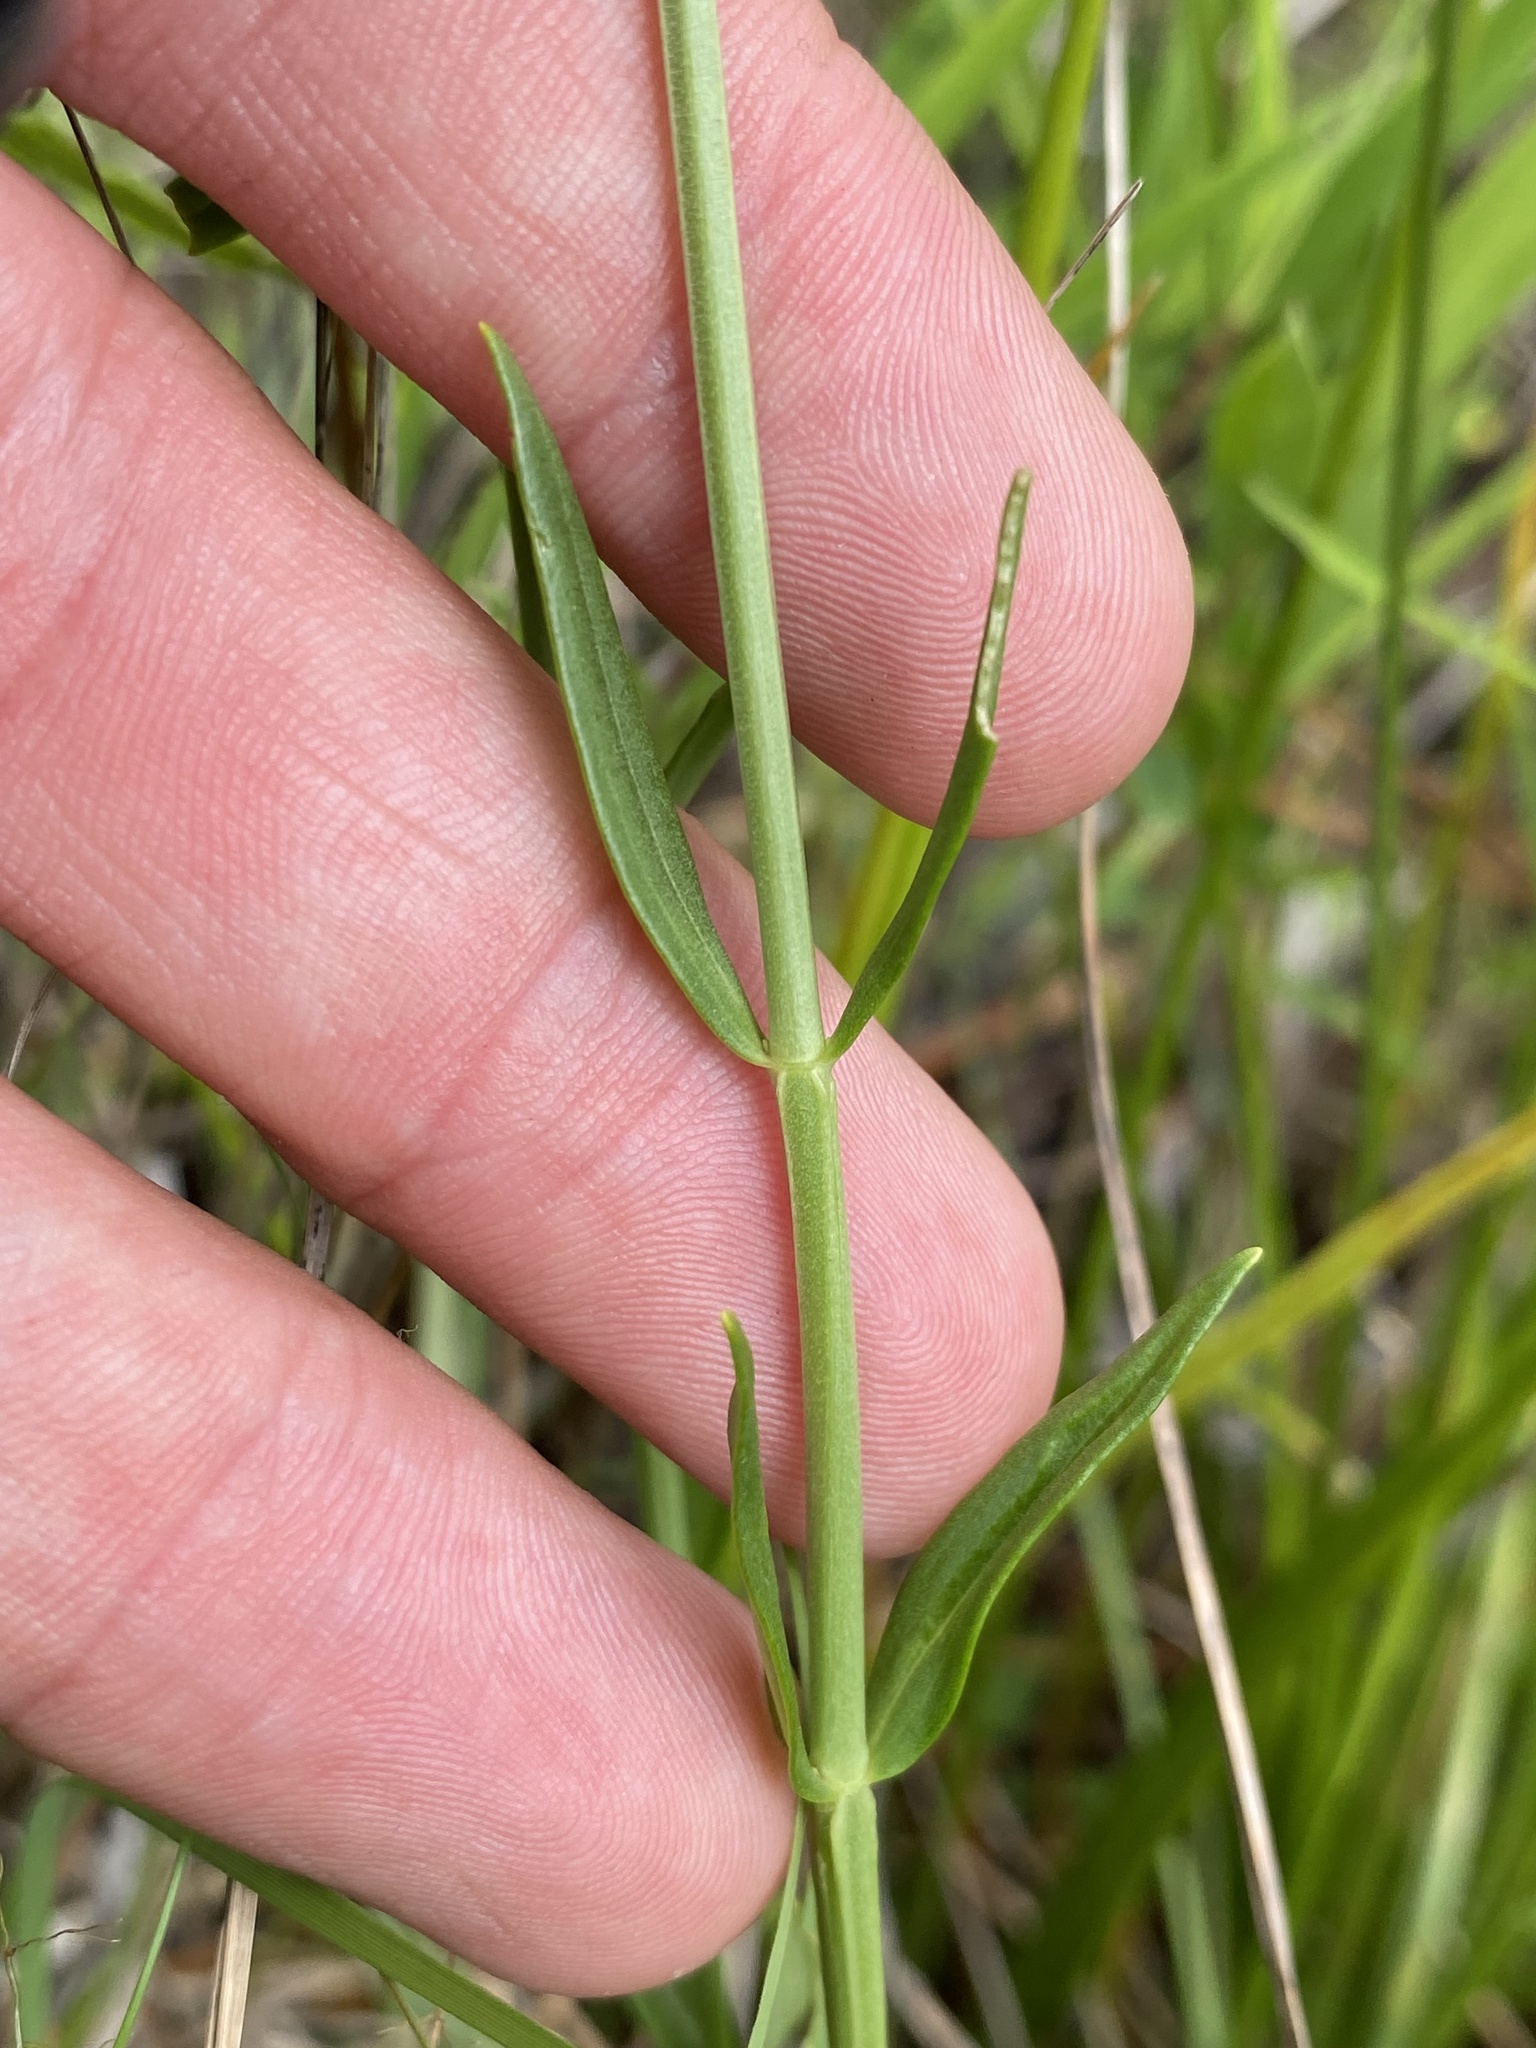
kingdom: Plantae
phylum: Tracheophyta
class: Magnoliopsida
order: Gentianales
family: Gentianaceae
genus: Sabatia
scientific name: Sabatia difformis
